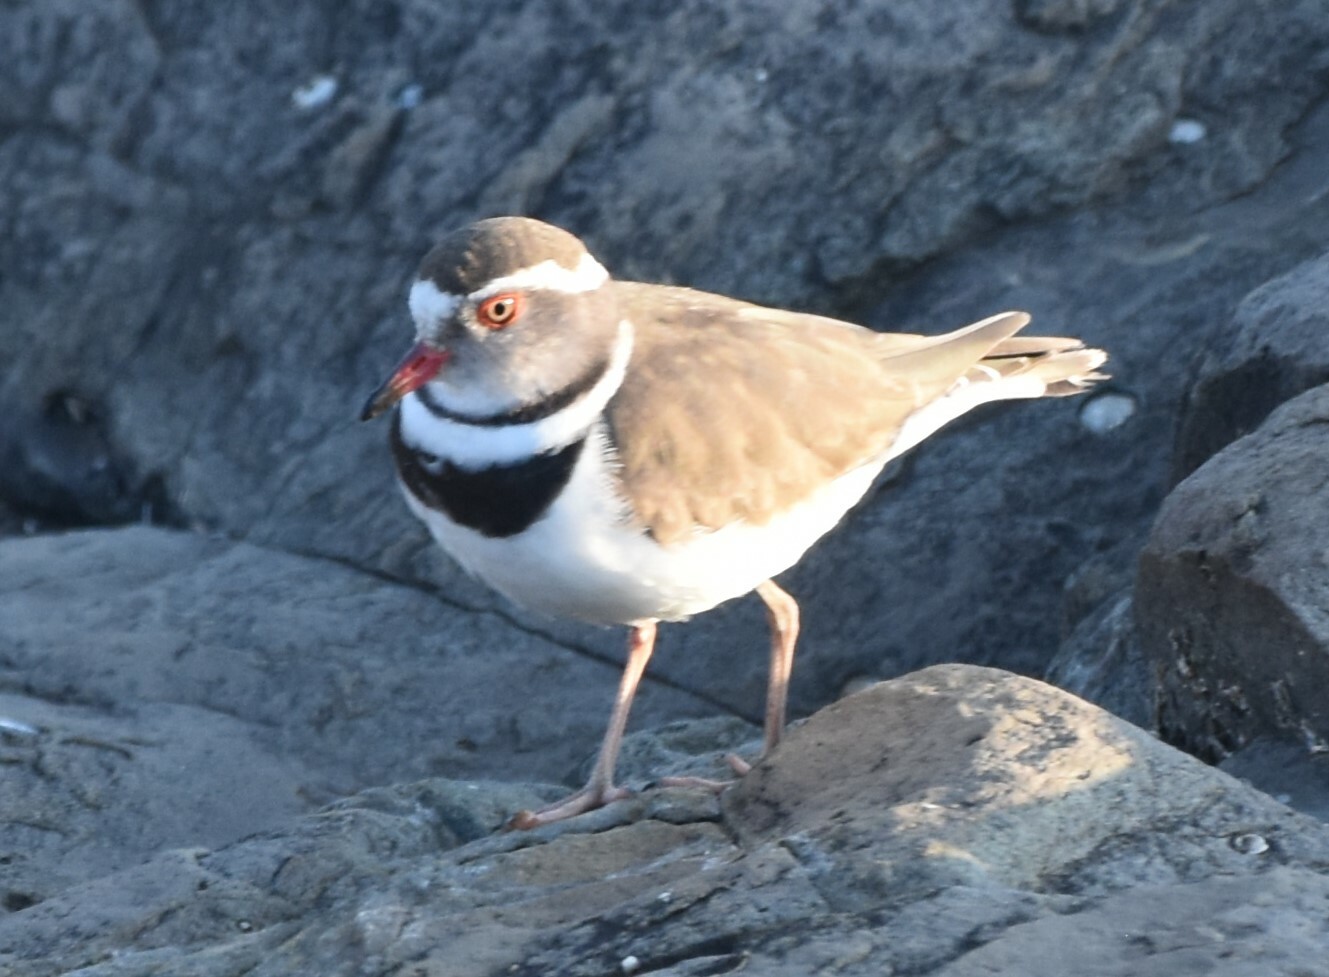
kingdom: Animalia
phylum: Chordata
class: Aves
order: Charadriiformes
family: Charadriidae
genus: Charadrius
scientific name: Charadrius tricollaris
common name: Three-banded plover
